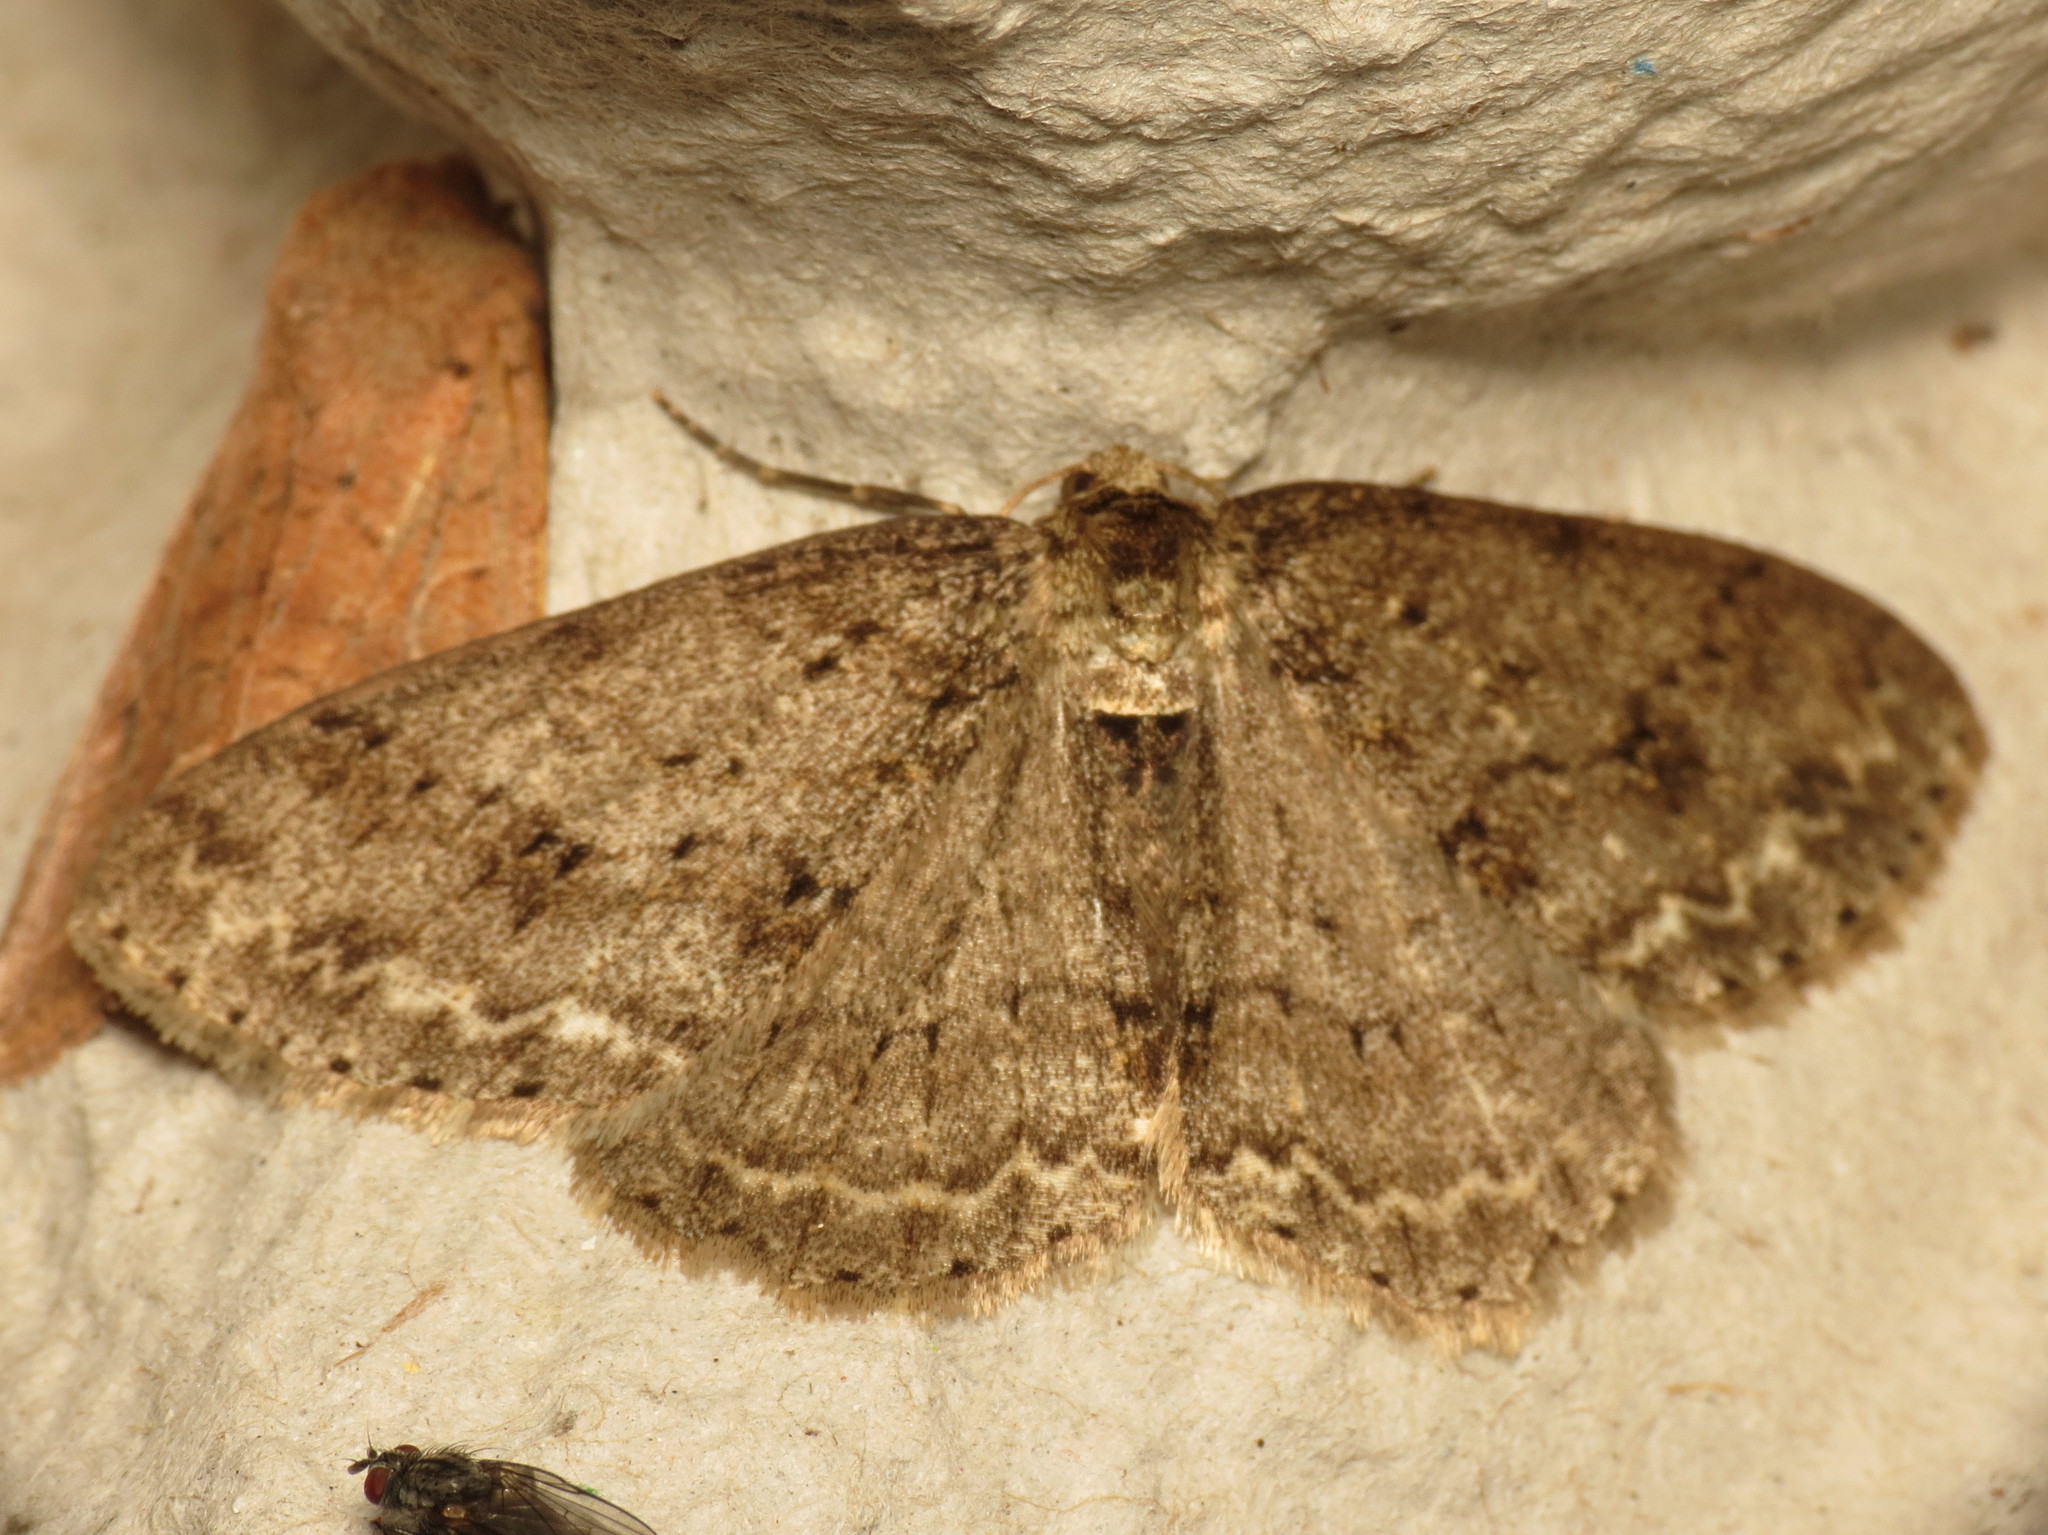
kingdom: Animalia
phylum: Arthropoda
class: Insecta
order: Lepidoptera
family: Geometridae
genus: Ectropis
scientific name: Ectropis crepuscularia
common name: Engrailed
